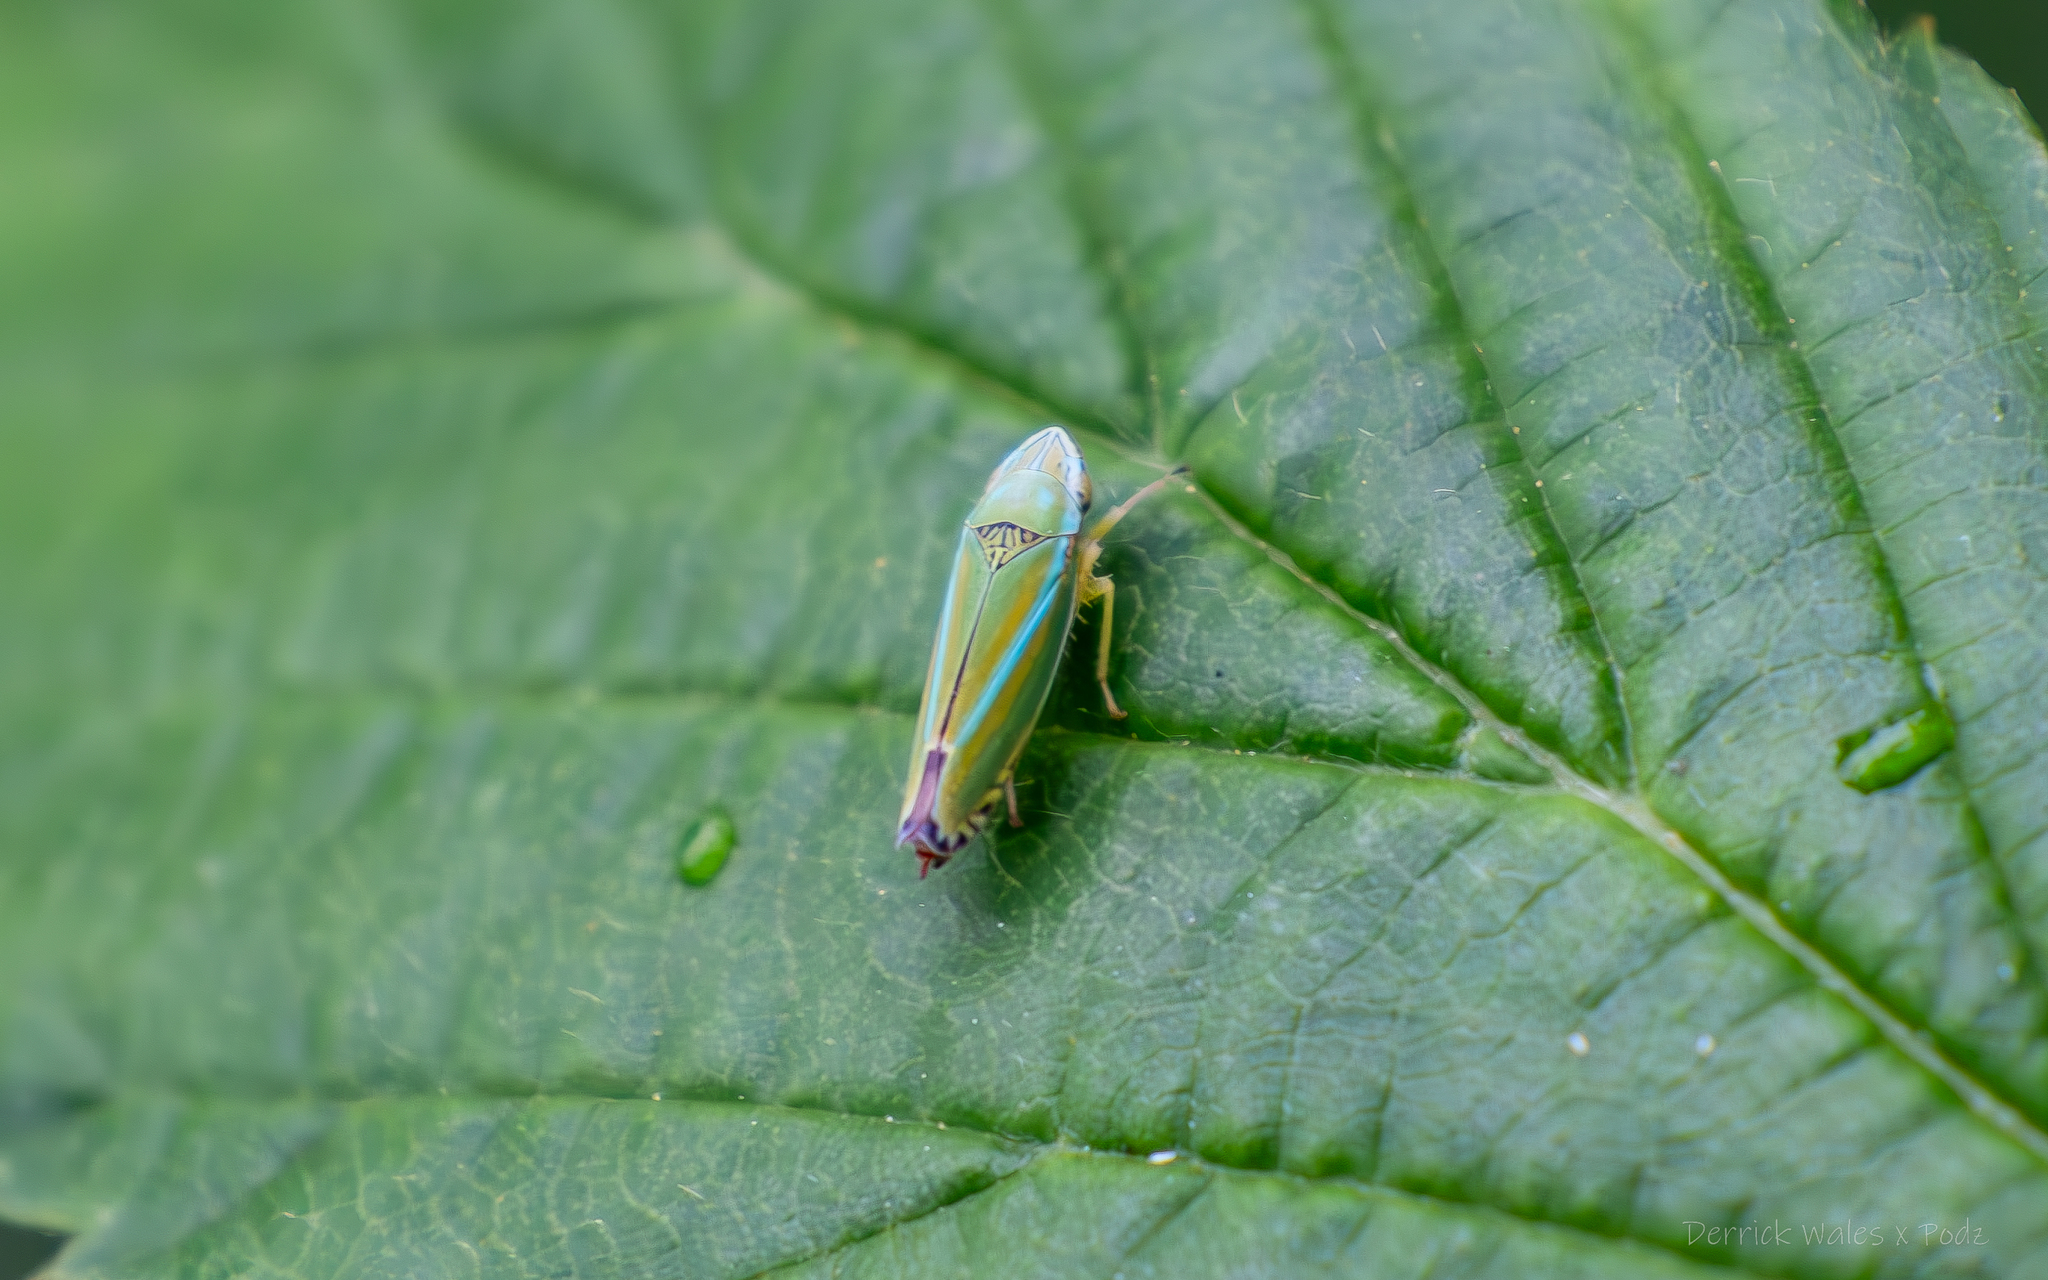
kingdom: Animalia
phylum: Arthropoda
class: Insecta
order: Hemiptera
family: Cicadellidae
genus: Graphocephala
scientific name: Graphocephala versuta
